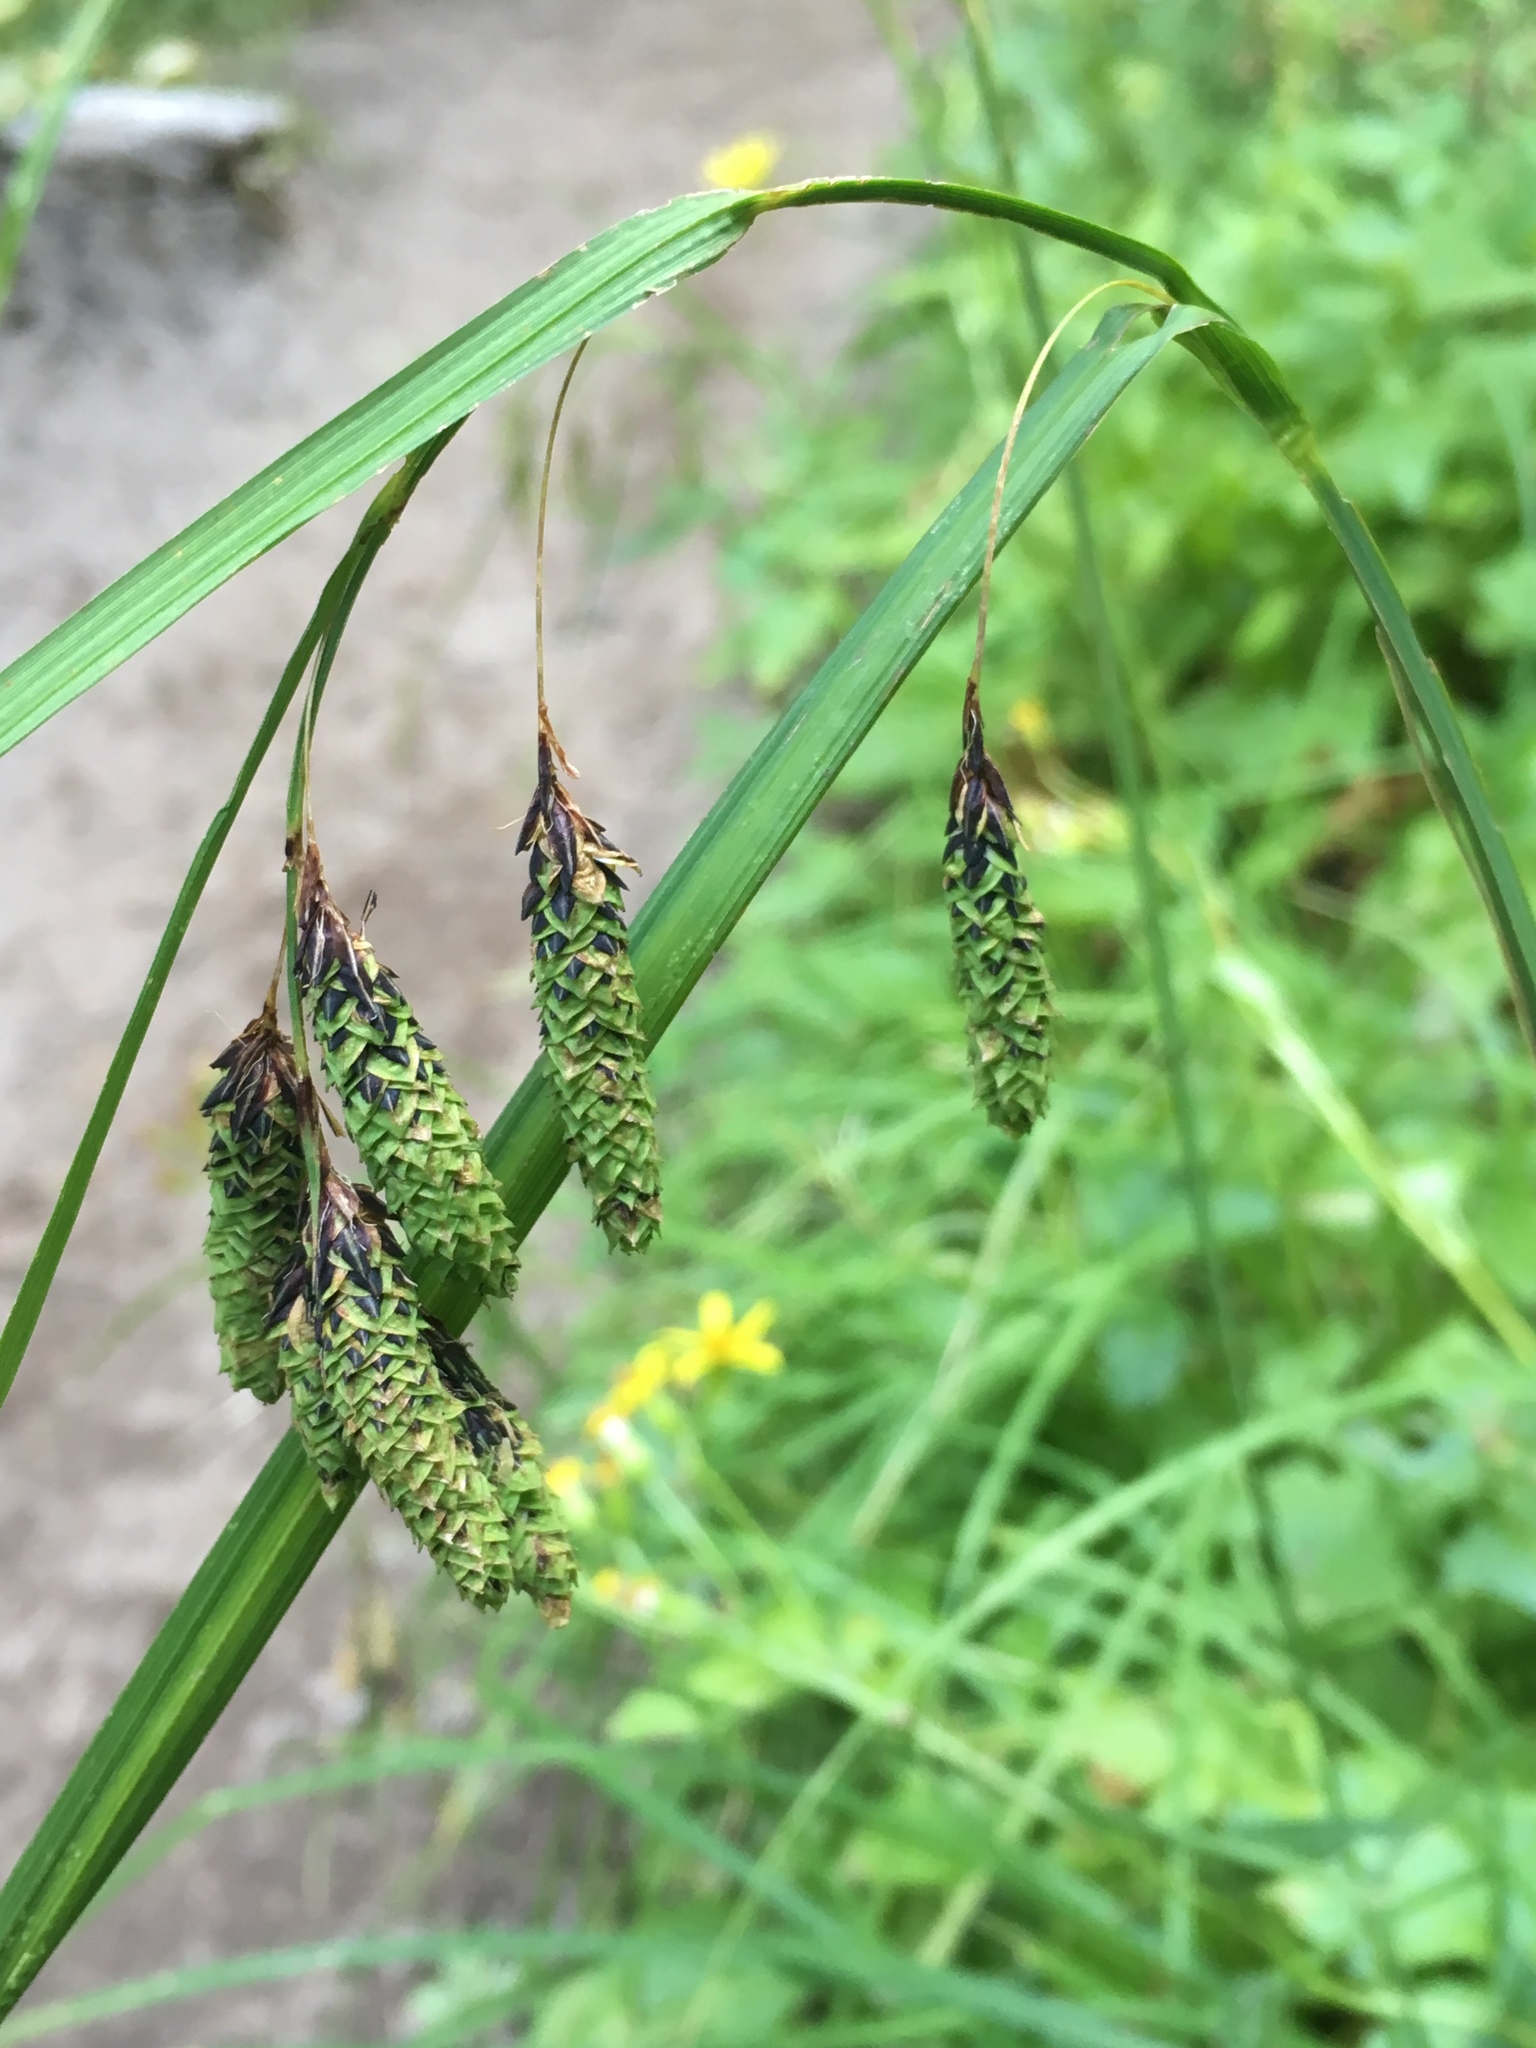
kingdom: Plantae
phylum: Tracheophyta
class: Liliopsida
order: Poales
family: Cyperaceae
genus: Carex
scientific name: Carex mertensii
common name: Mertens' sedge
